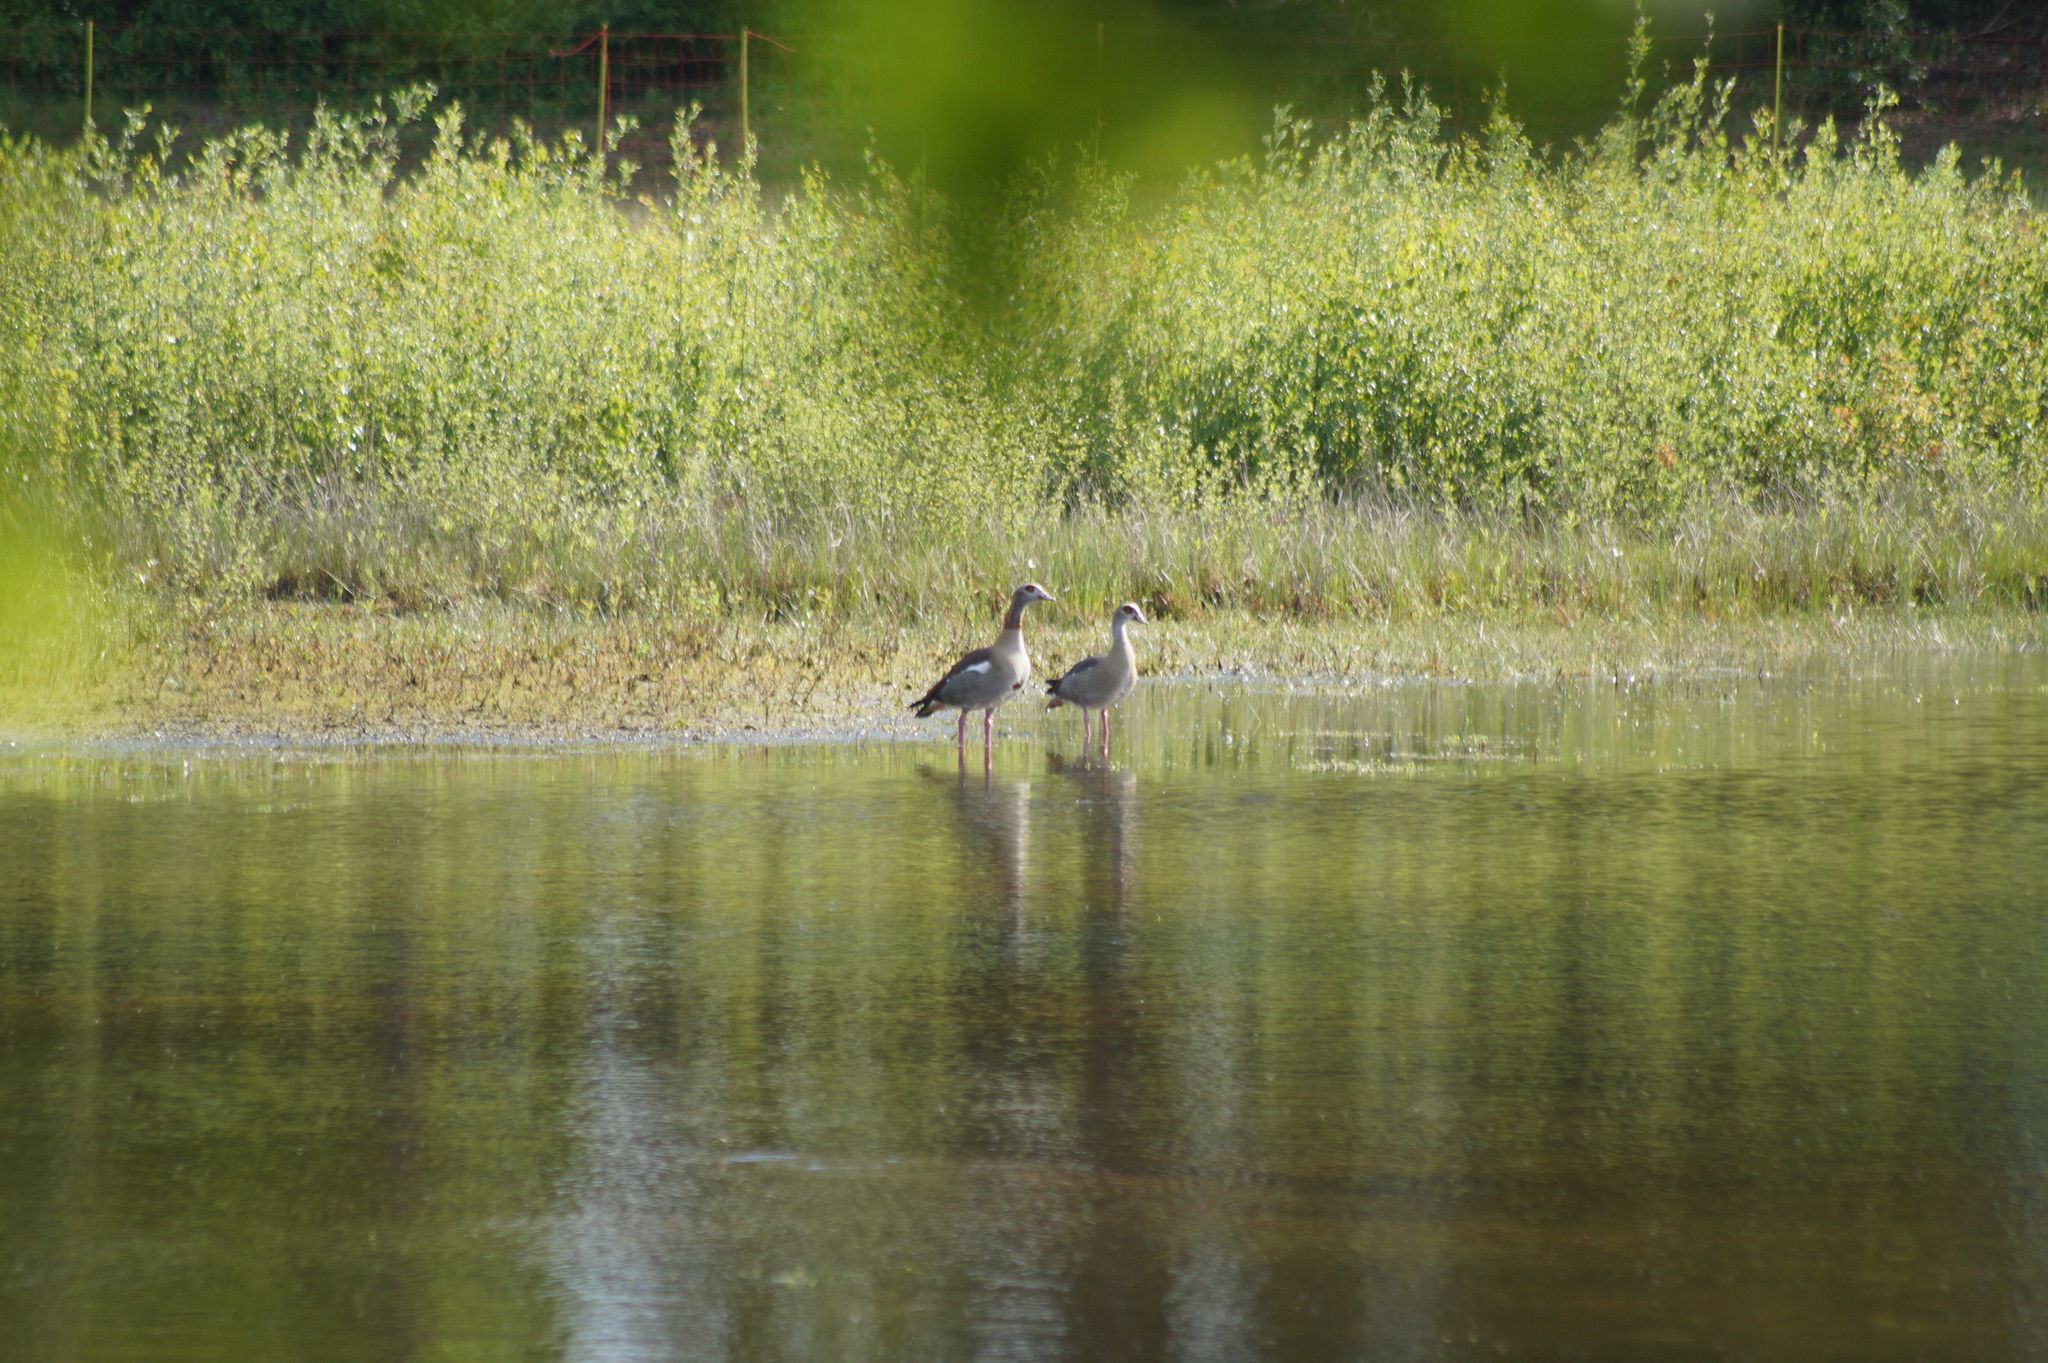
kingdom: Animalia
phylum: Chordata
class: Aves
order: Anseriformes
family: Anatidae
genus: Alopochen
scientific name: Alopochen aegyptiaca
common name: Egyptian goose
